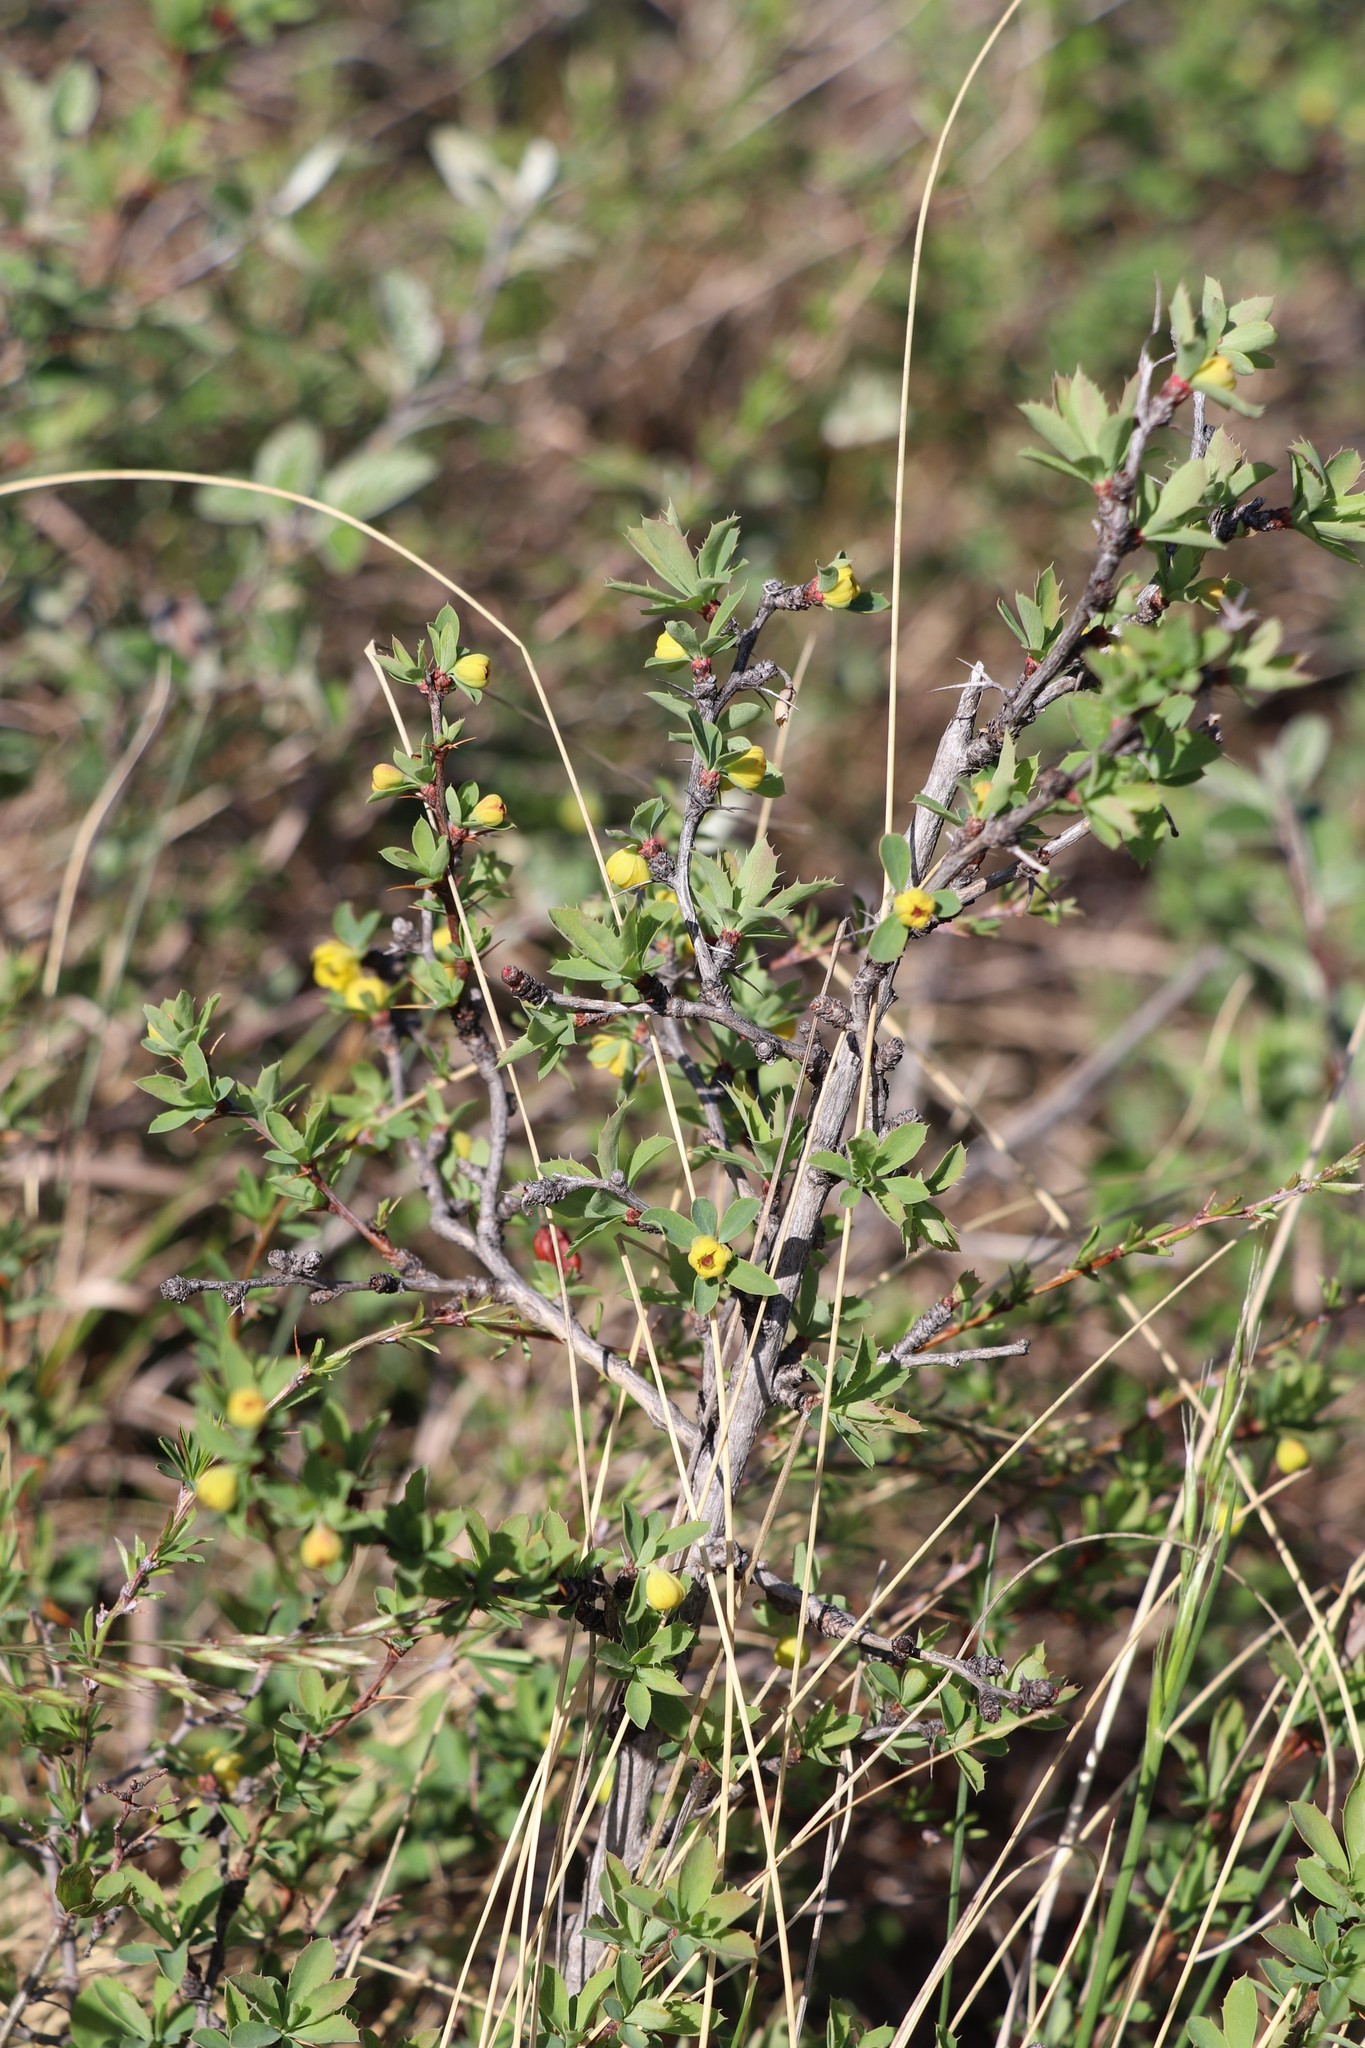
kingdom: Plantae
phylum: Tracheophyta
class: Magnoliopsida
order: Ranunculales
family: Berberidaceae
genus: Berberis
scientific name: Berberis sibirica
